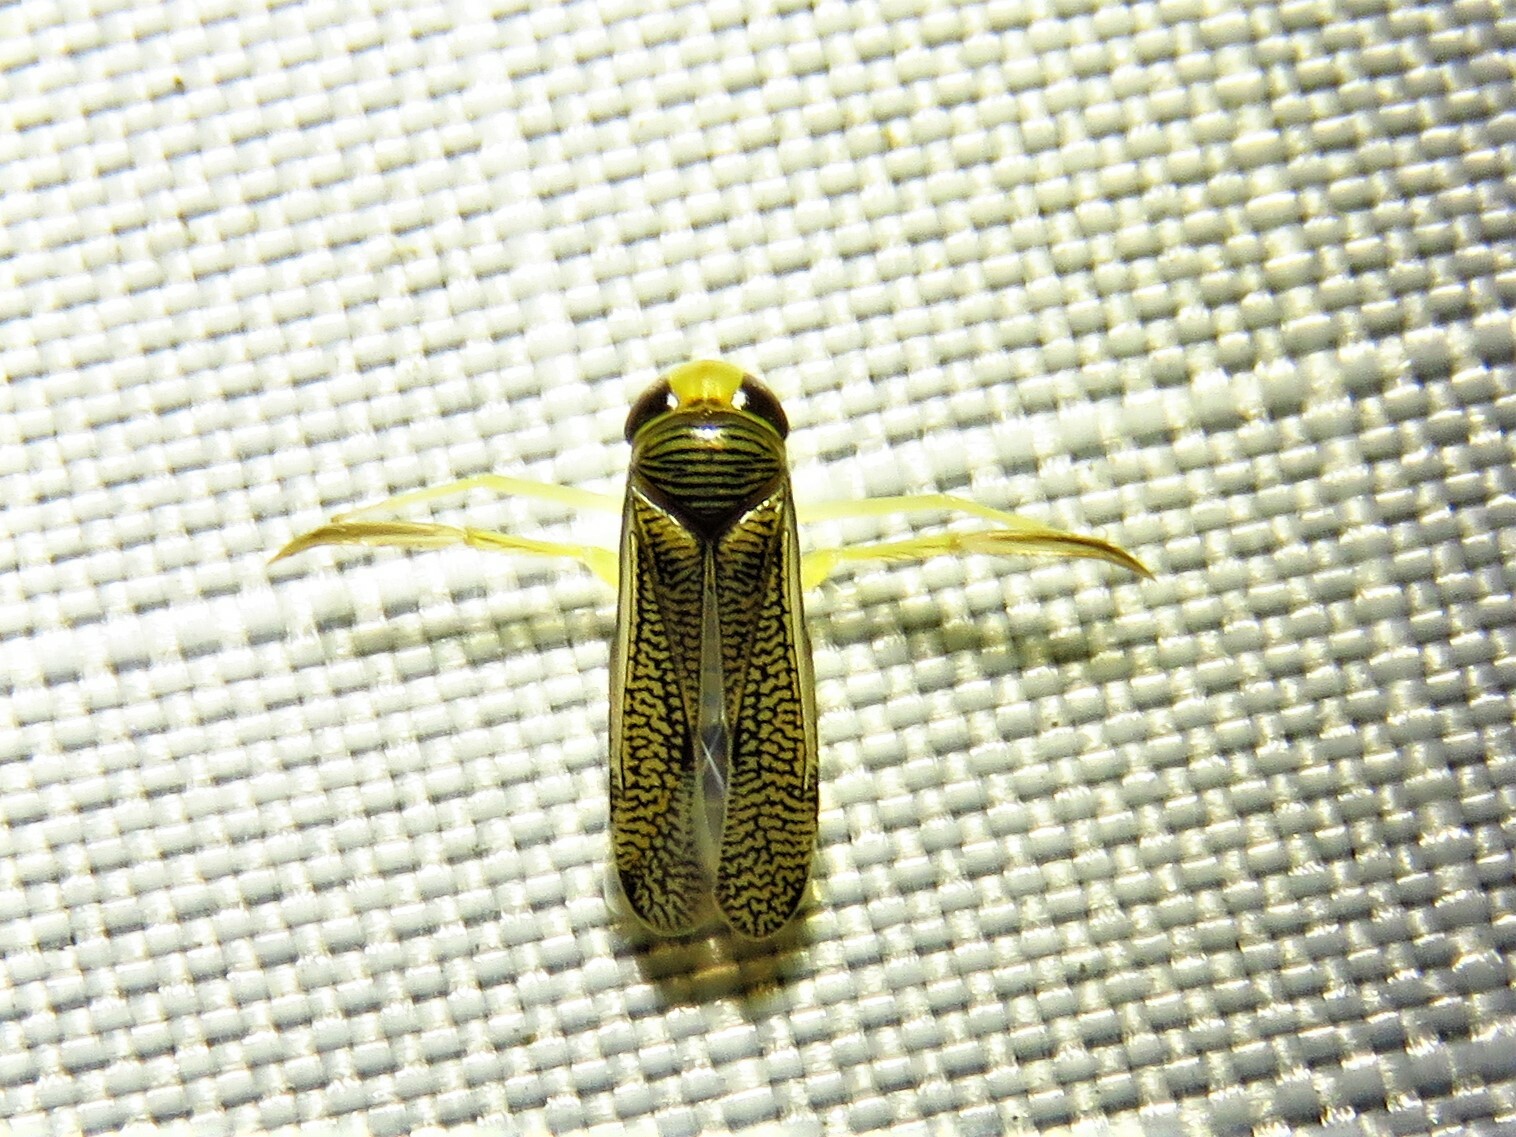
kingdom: Animalia
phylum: Arthropoda
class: Insecta
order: Hemiptera
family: Corixidae
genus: Trichocorixa
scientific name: Trichocorixa
